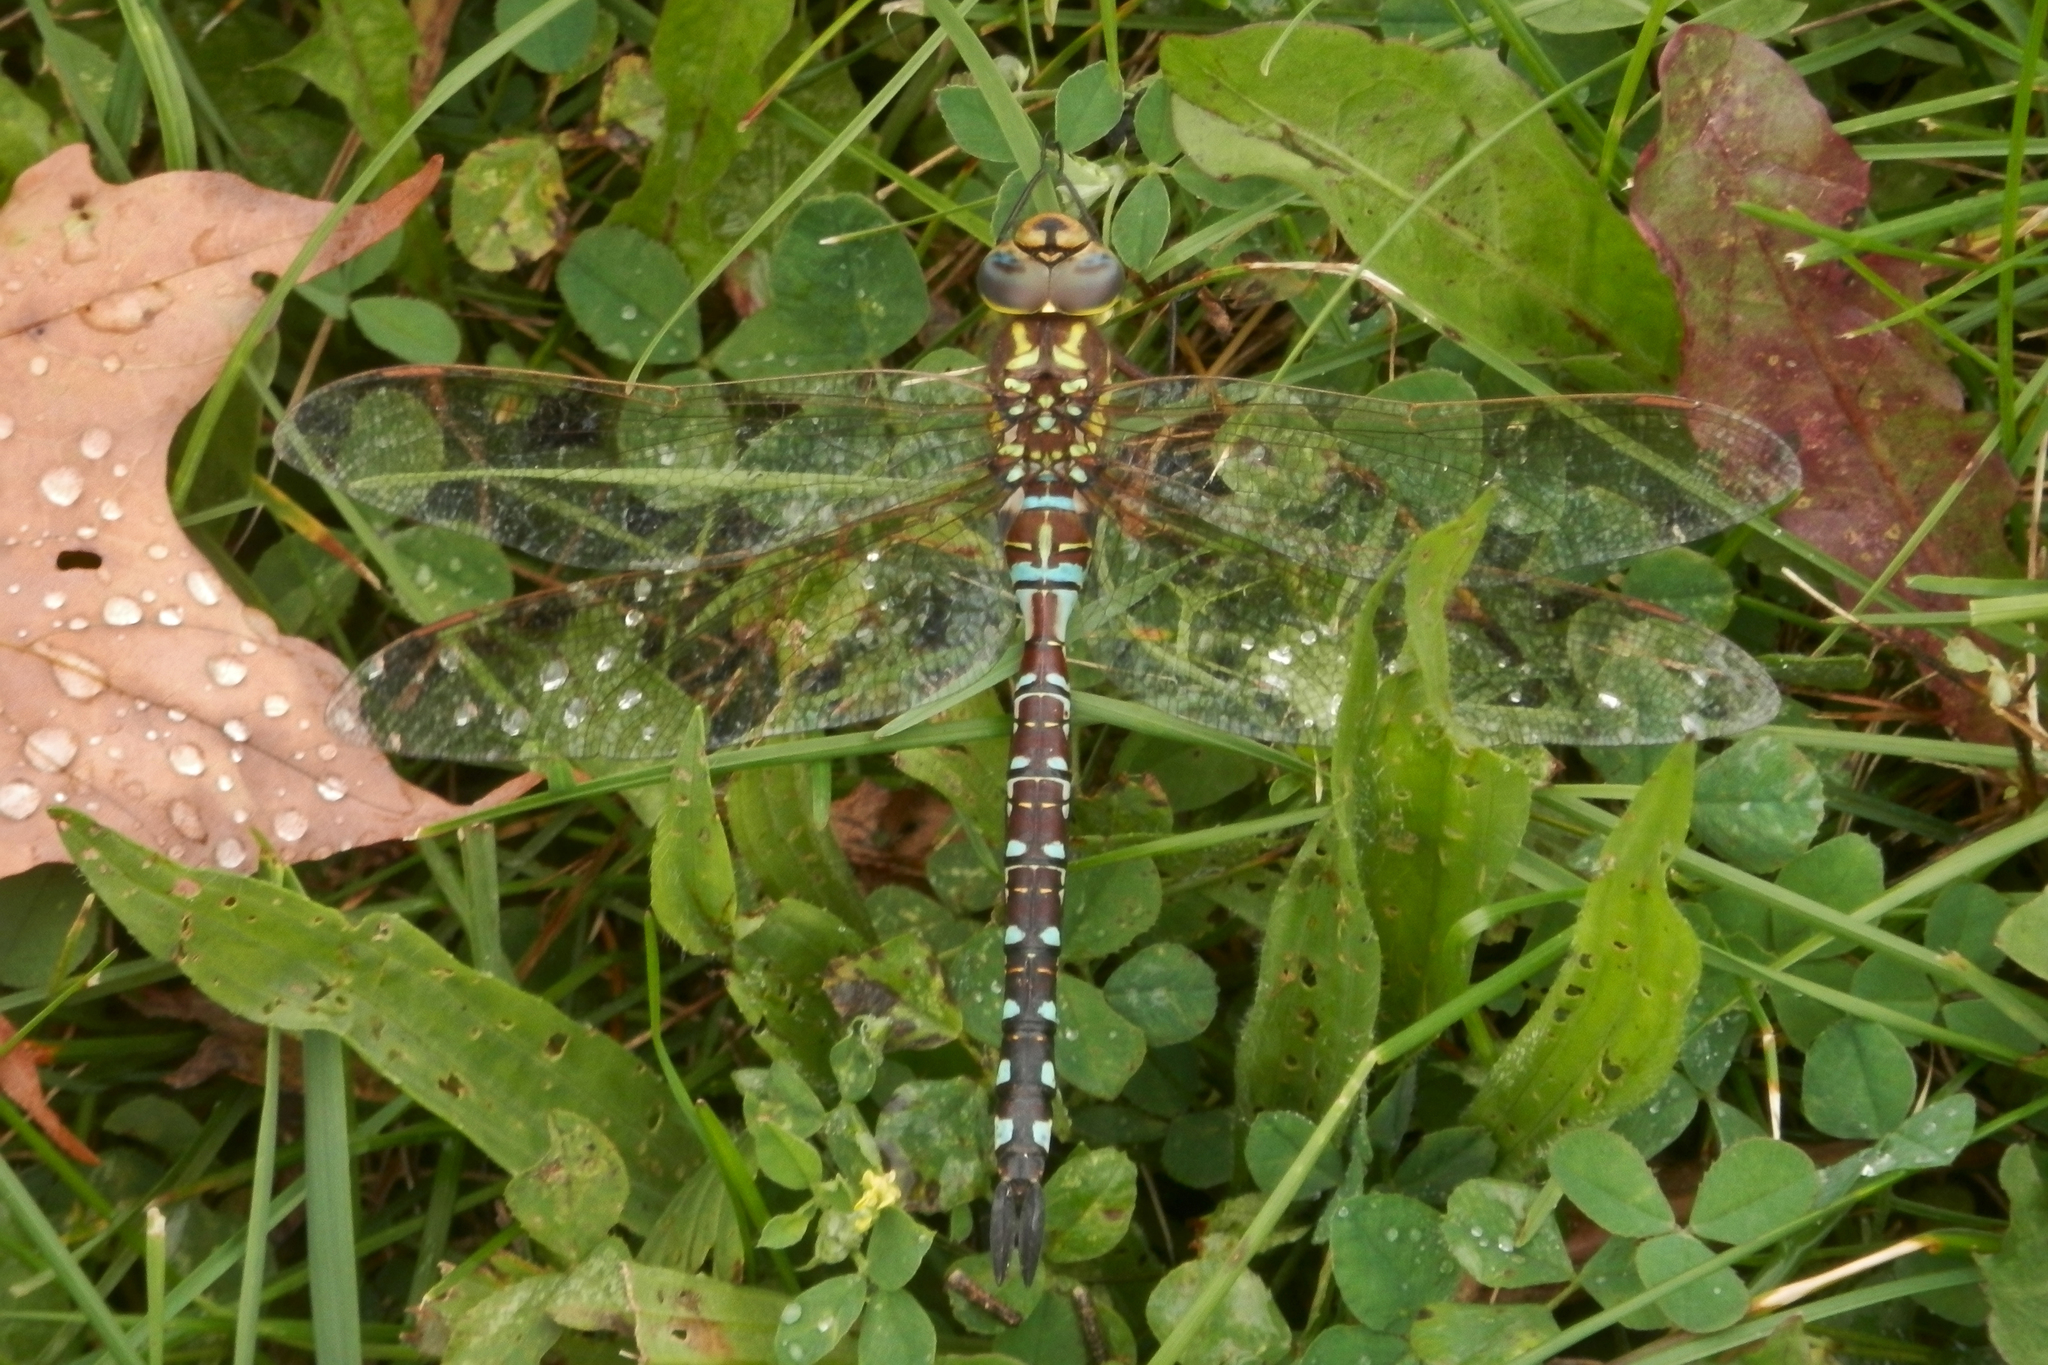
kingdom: Animalia
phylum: Arthropoda
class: Insecta
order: Odonata
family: Aeshnidae
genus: Aeshna
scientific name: Aeshna constricta
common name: Lance-tipped darner
